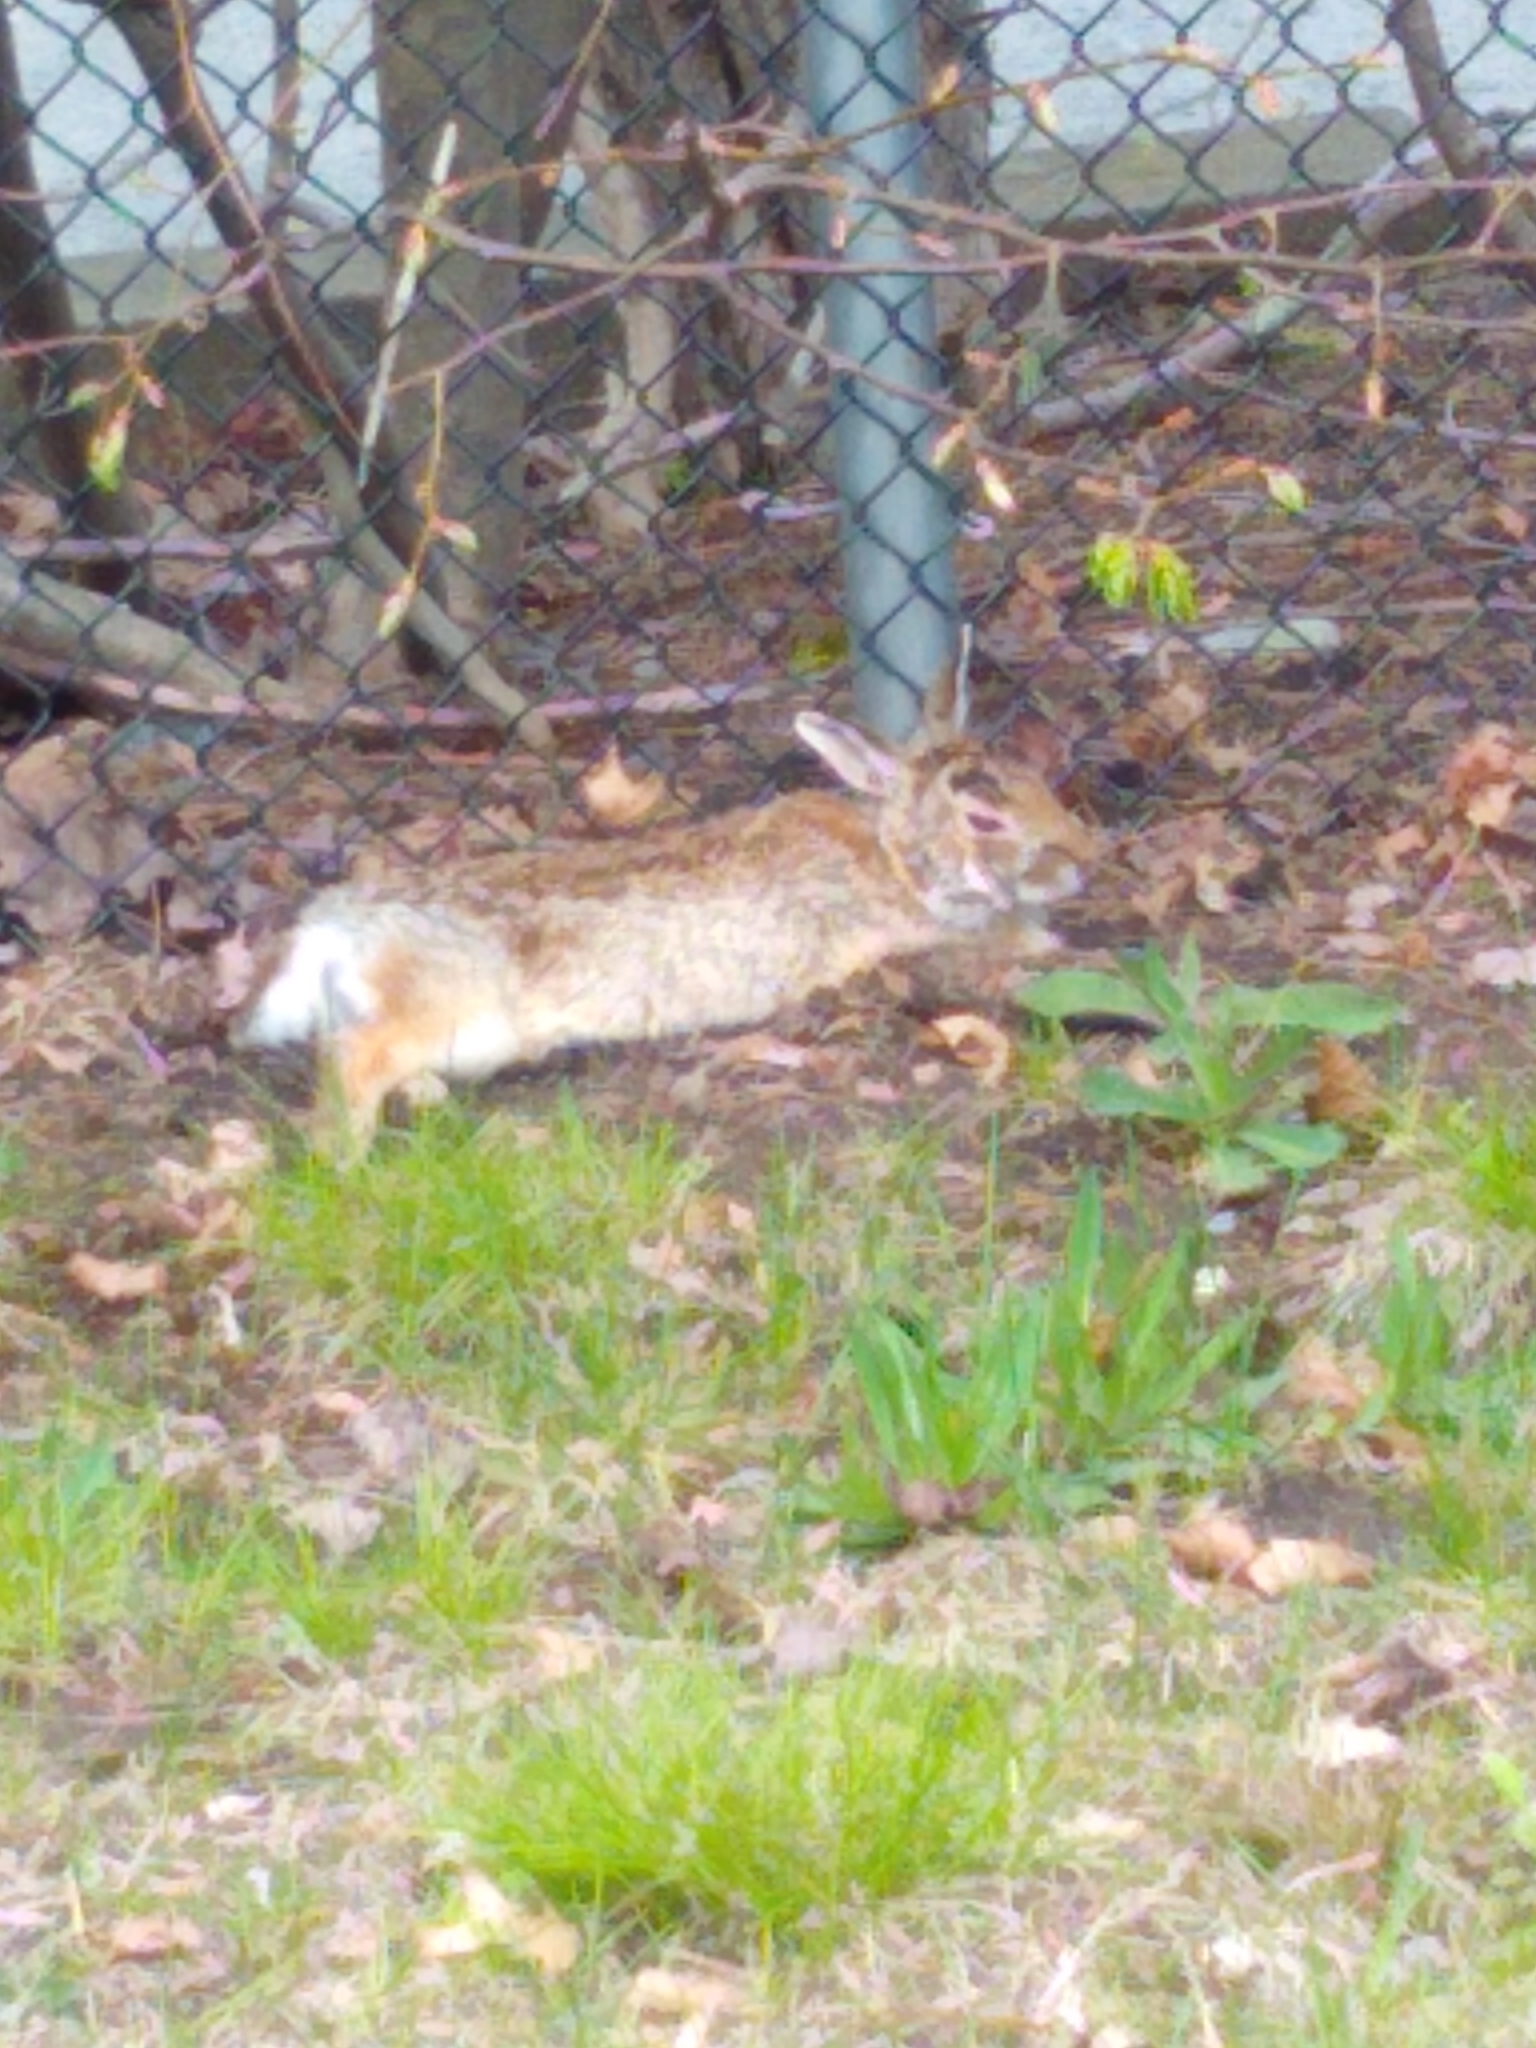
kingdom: Animalia
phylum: Chordata
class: Mammalia
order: Lagomorpha
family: Leporidae
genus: Sylvilagus
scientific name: Sylvilagus floridanus
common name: Eastern cottontail
